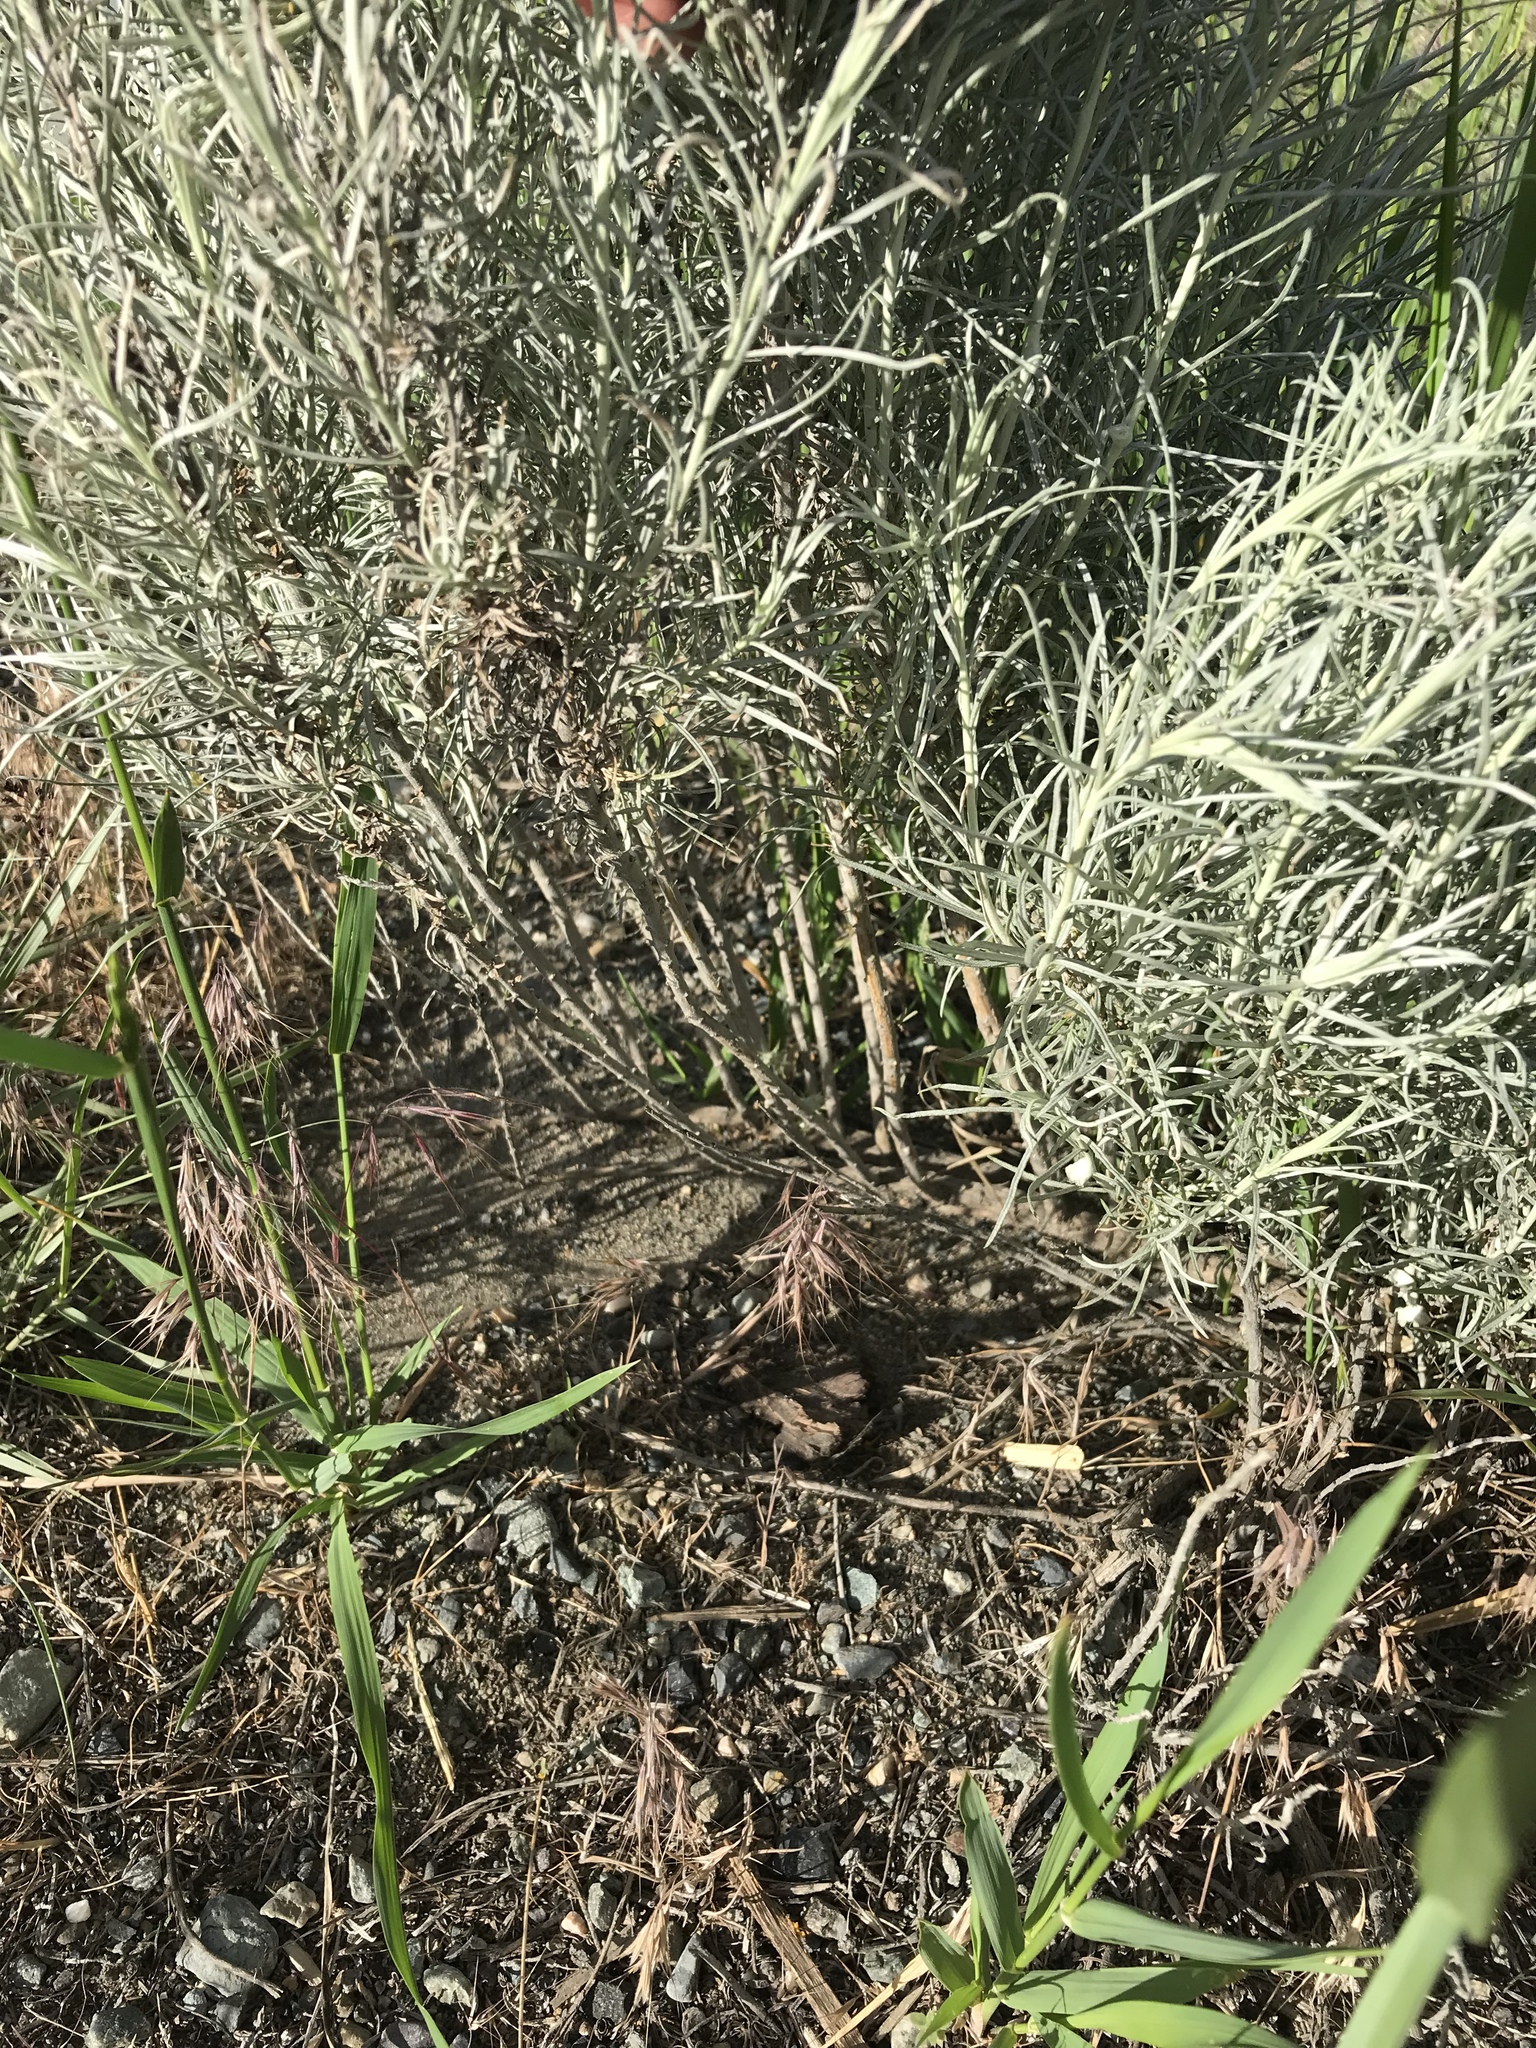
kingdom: Plantae
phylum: Tracheophyta
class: Magnoliopsida
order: Asterales
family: Asteraceae
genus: Ericameria
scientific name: Ericameria nauseosa
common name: Rubber rabbitbrush
